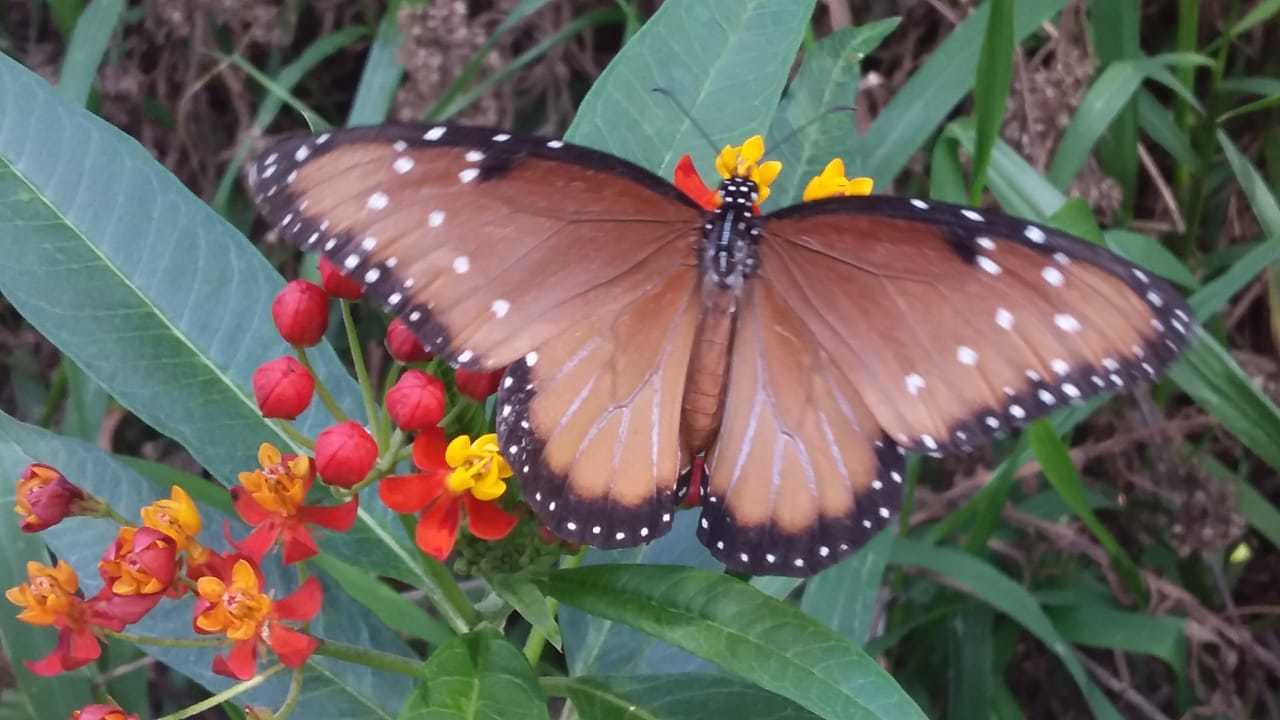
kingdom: Animalia
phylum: Arthropoda
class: Insecta
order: Lepidoptera
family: Nymphalidae
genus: Danaus
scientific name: Danaus gilippus
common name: Queen
